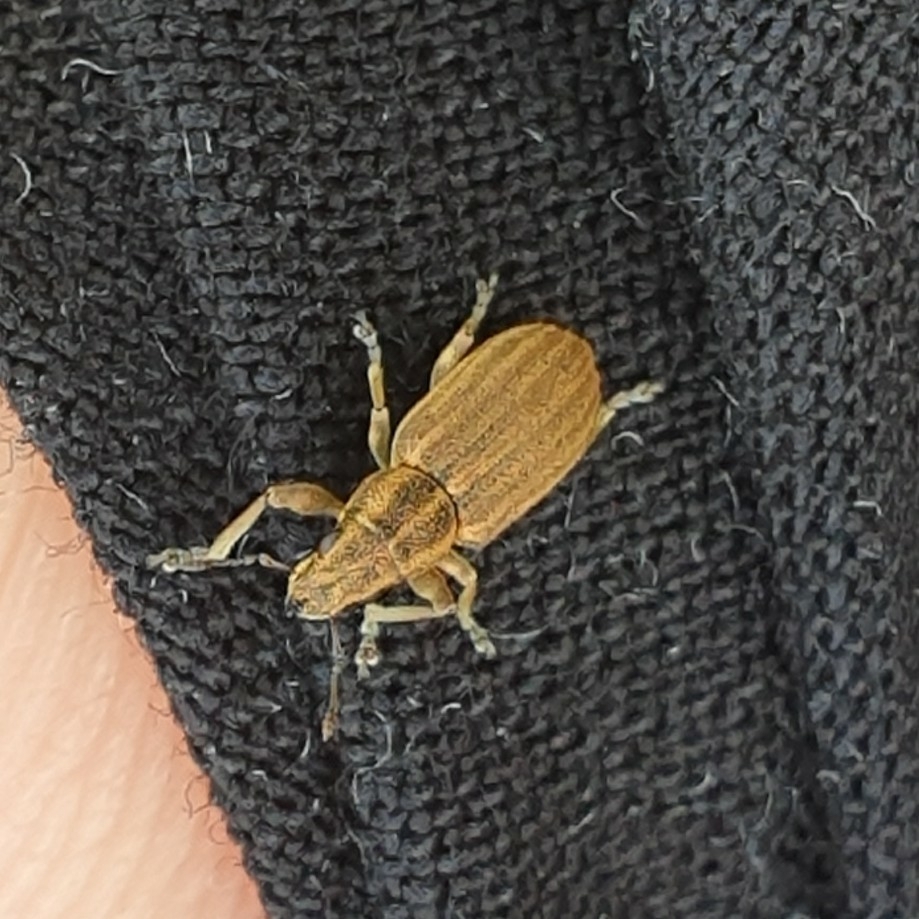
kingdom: Animalia
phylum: Arthropoda
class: Insecta
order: Coleoptera
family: Curculionidae
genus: Sitona
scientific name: Sitona lineatus
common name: Weevil
